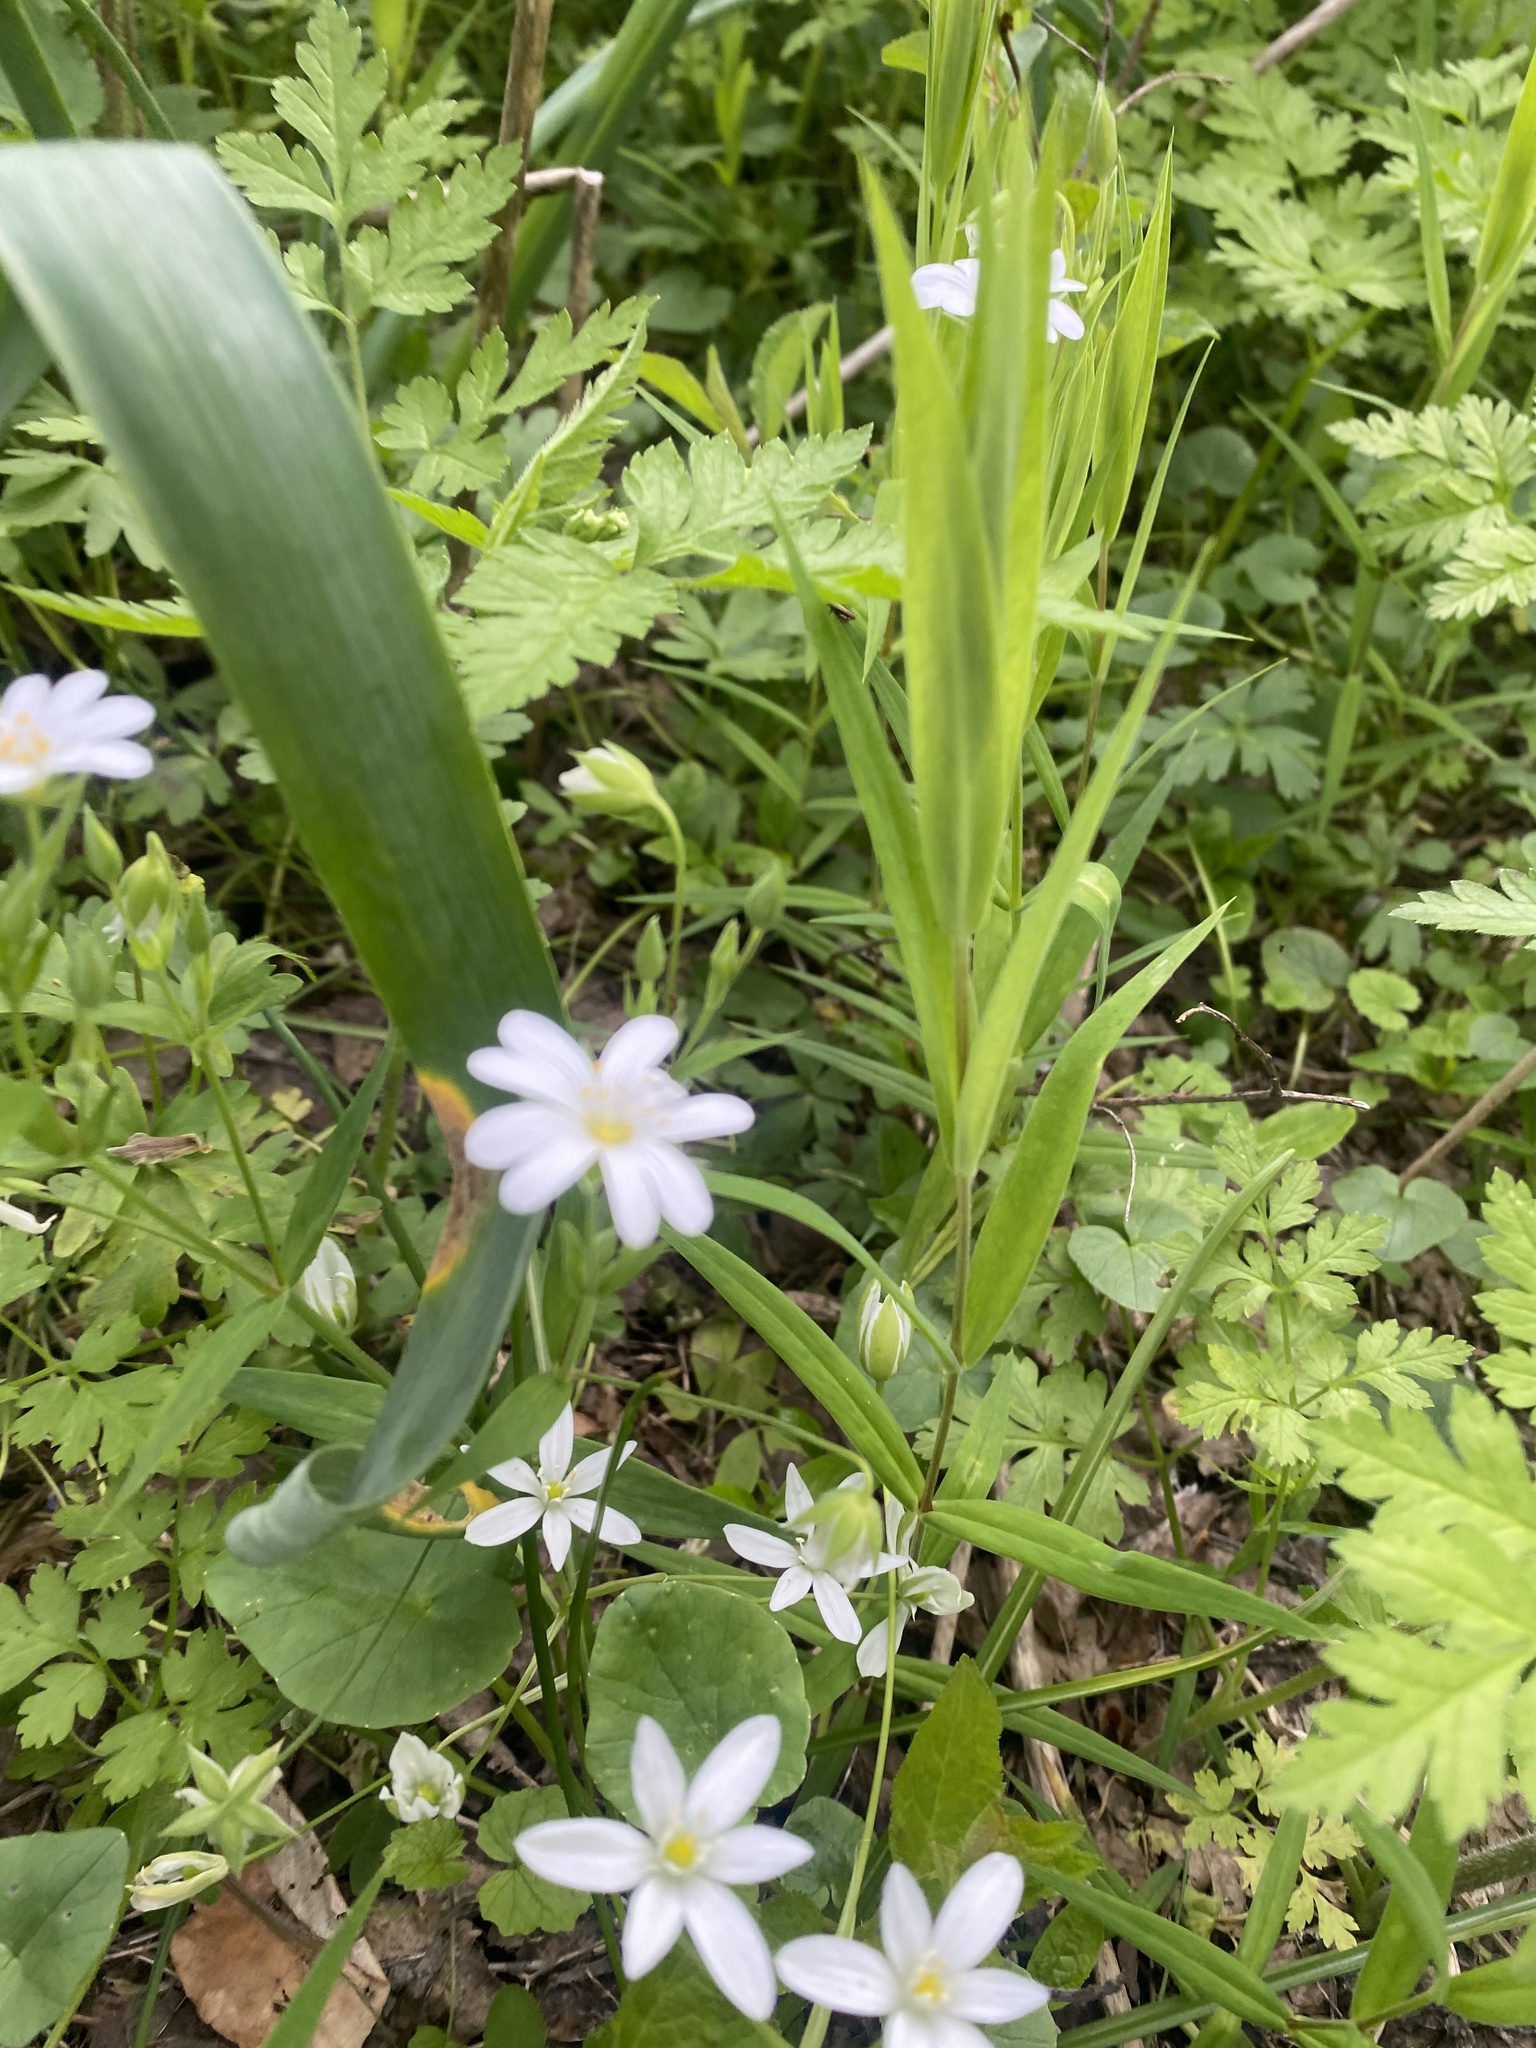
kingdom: Plantae
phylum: Tracheophyta
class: Magnoliopsida
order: Caryophyllales
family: Caryophyllaceae
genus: Rabelera
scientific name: Rabelera holostea
